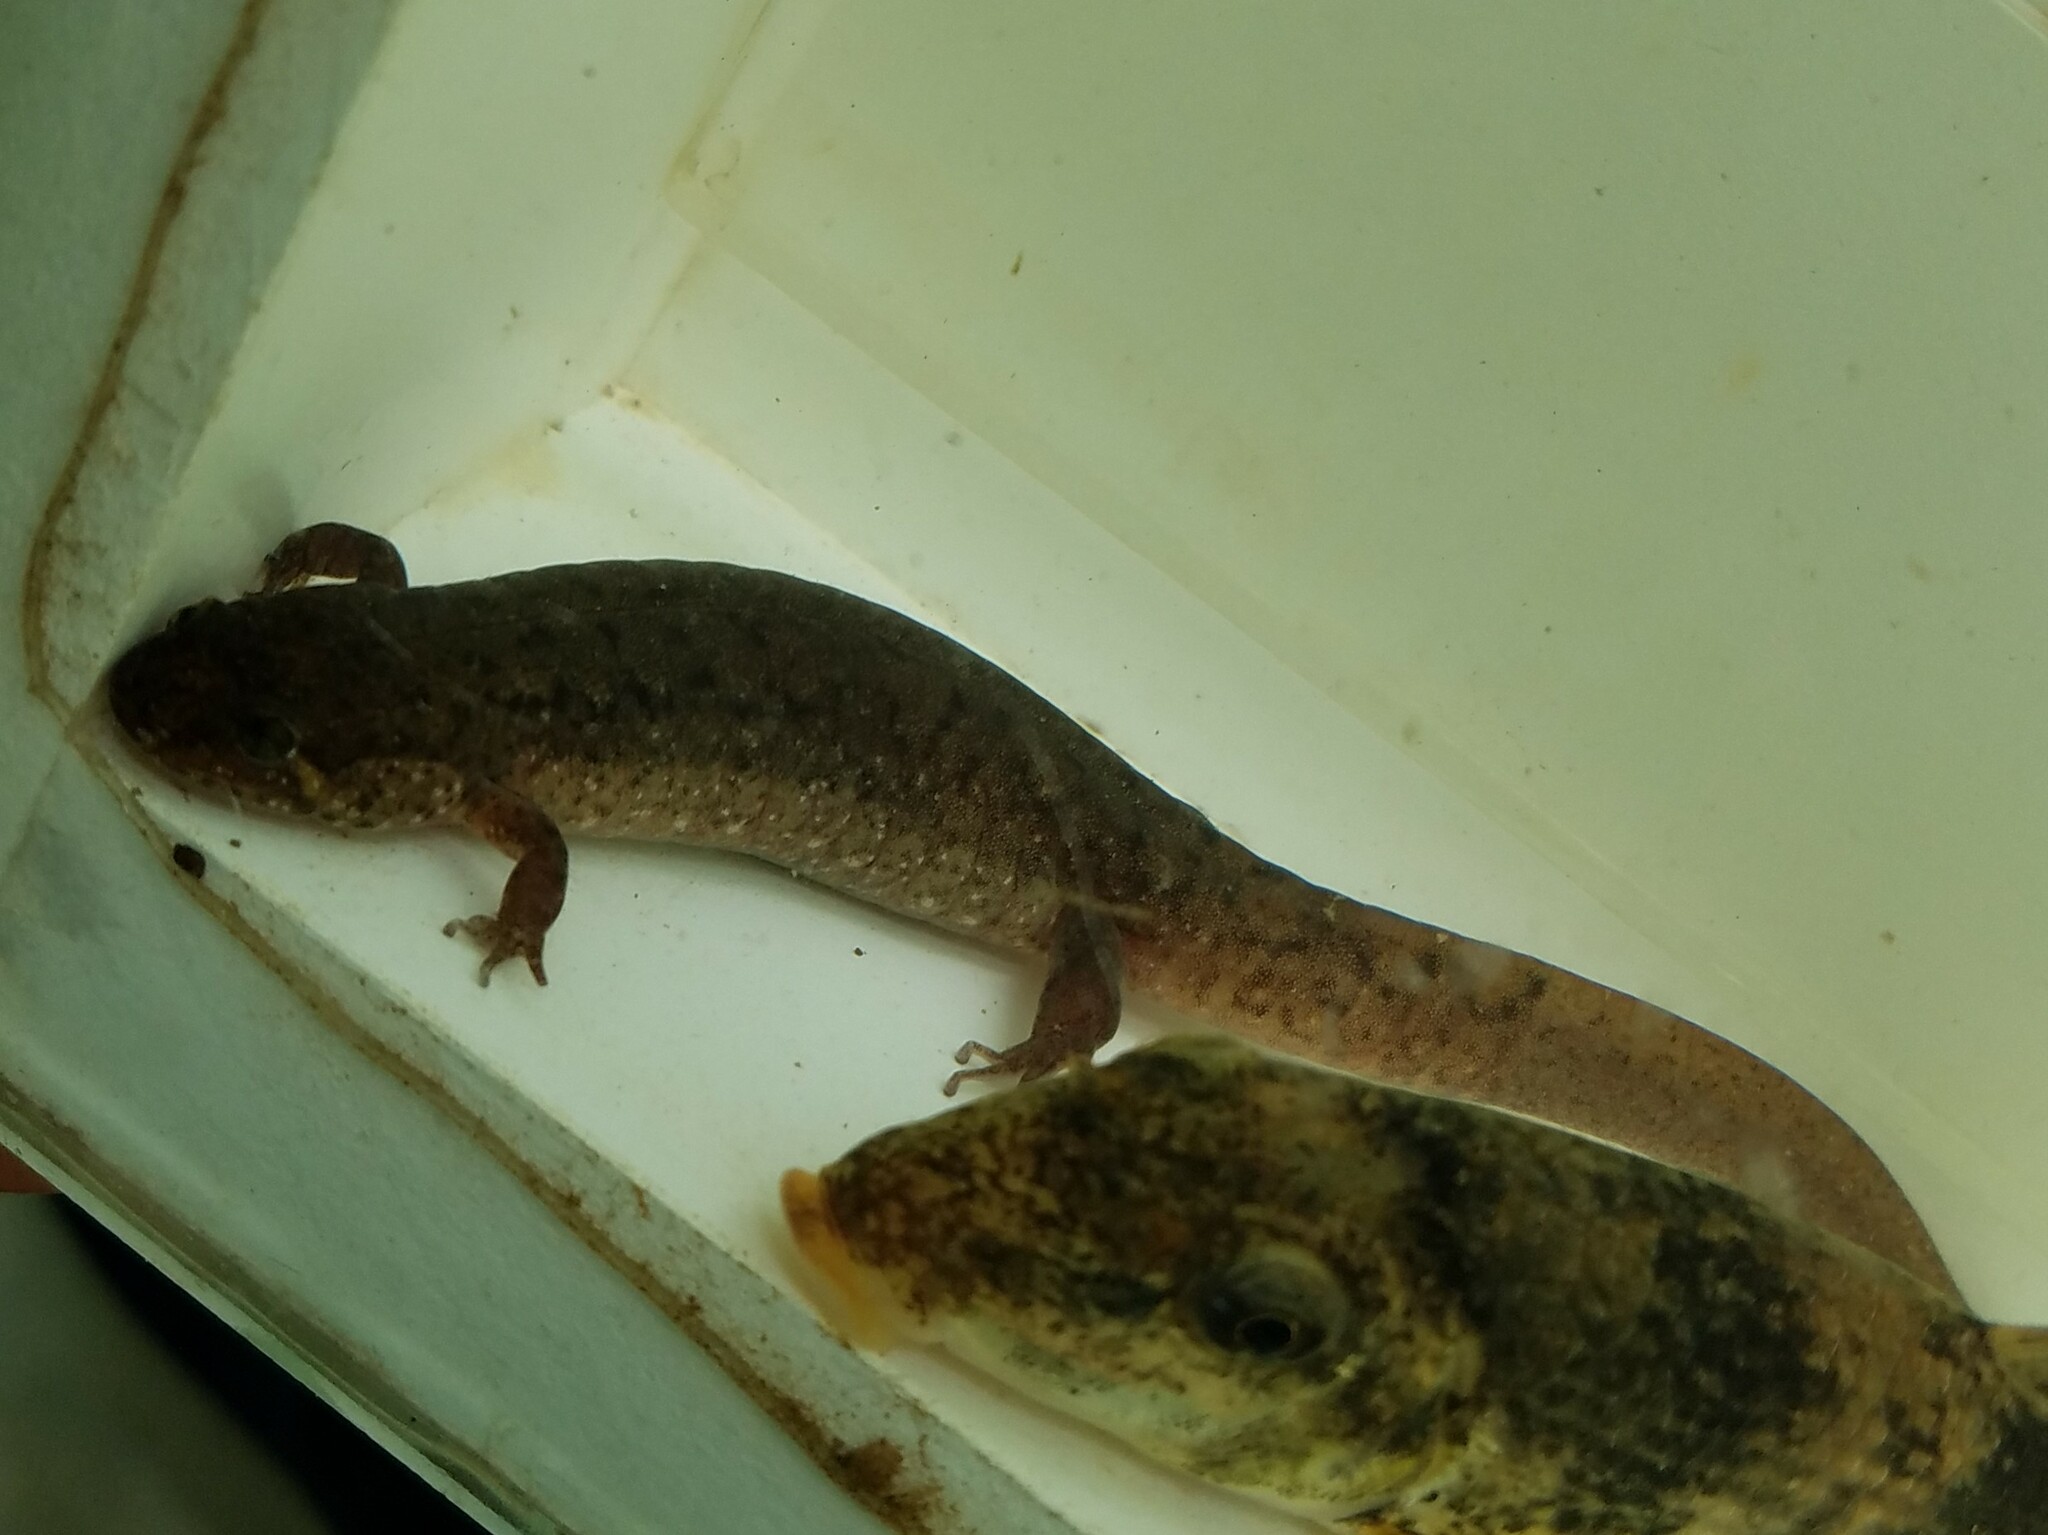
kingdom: Animalia
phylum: Chordata
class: Amphibia
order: Caudata
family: Plethodontidae
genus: Desmognathus
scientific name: Desmognathus monticola
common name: Seal salamander
